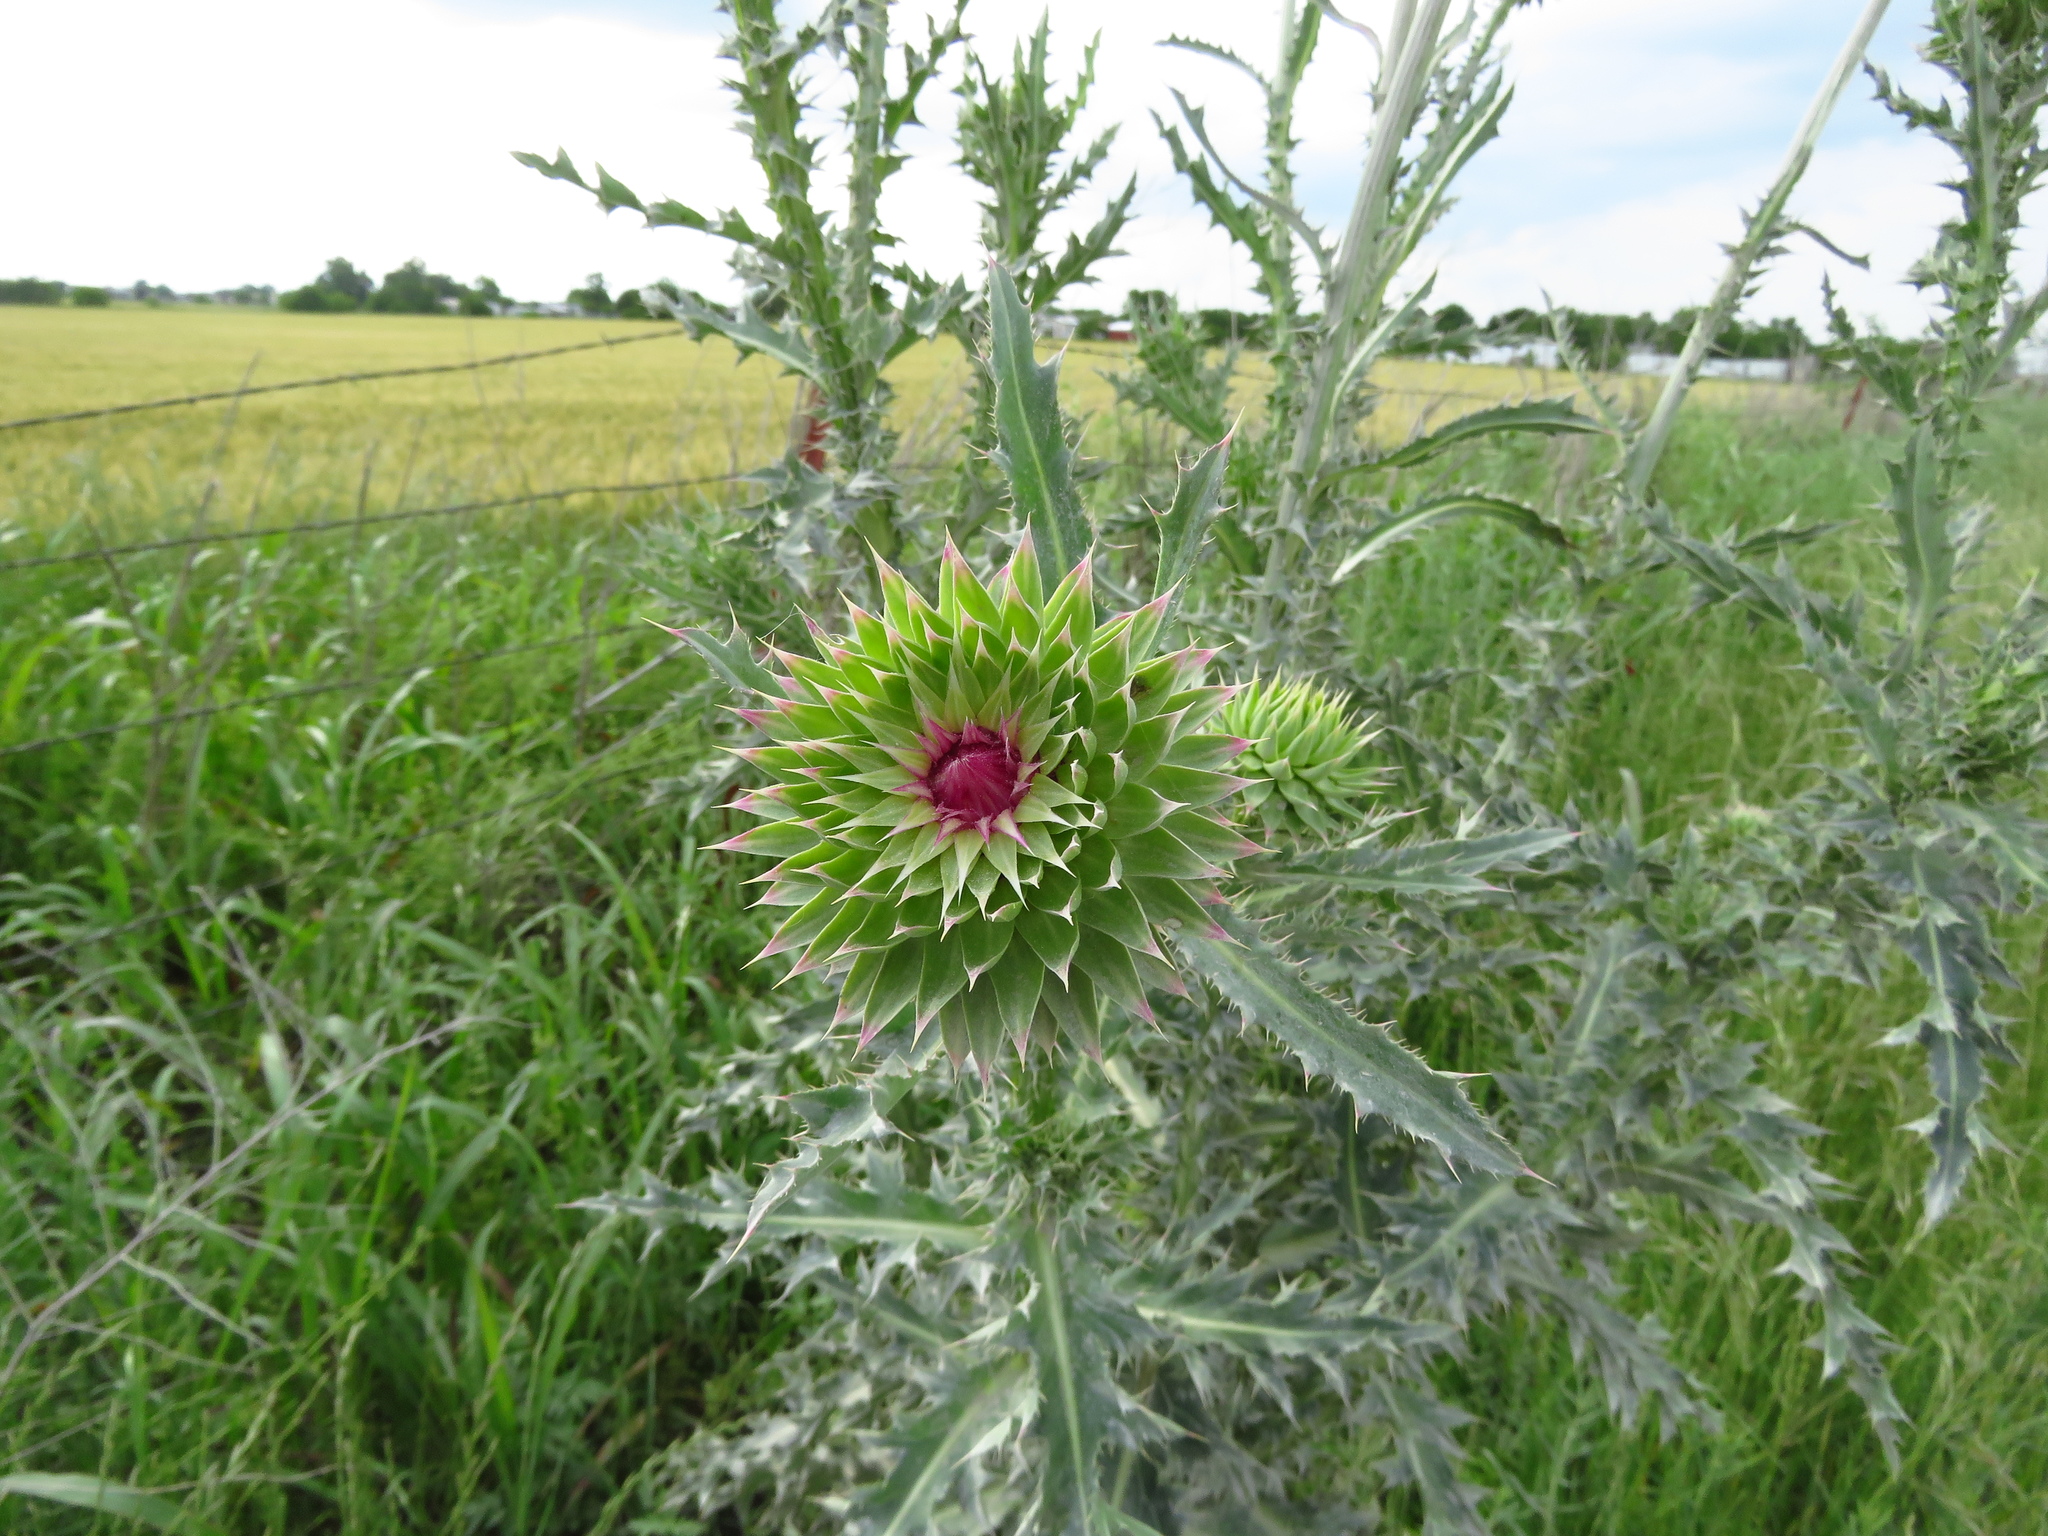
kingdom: Plantae
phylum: Tracheophyta
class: Magnoliopsida
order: Asterales
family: Asteraceae
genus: Carduus
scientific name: Carduus nutans
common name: Musk thistle
